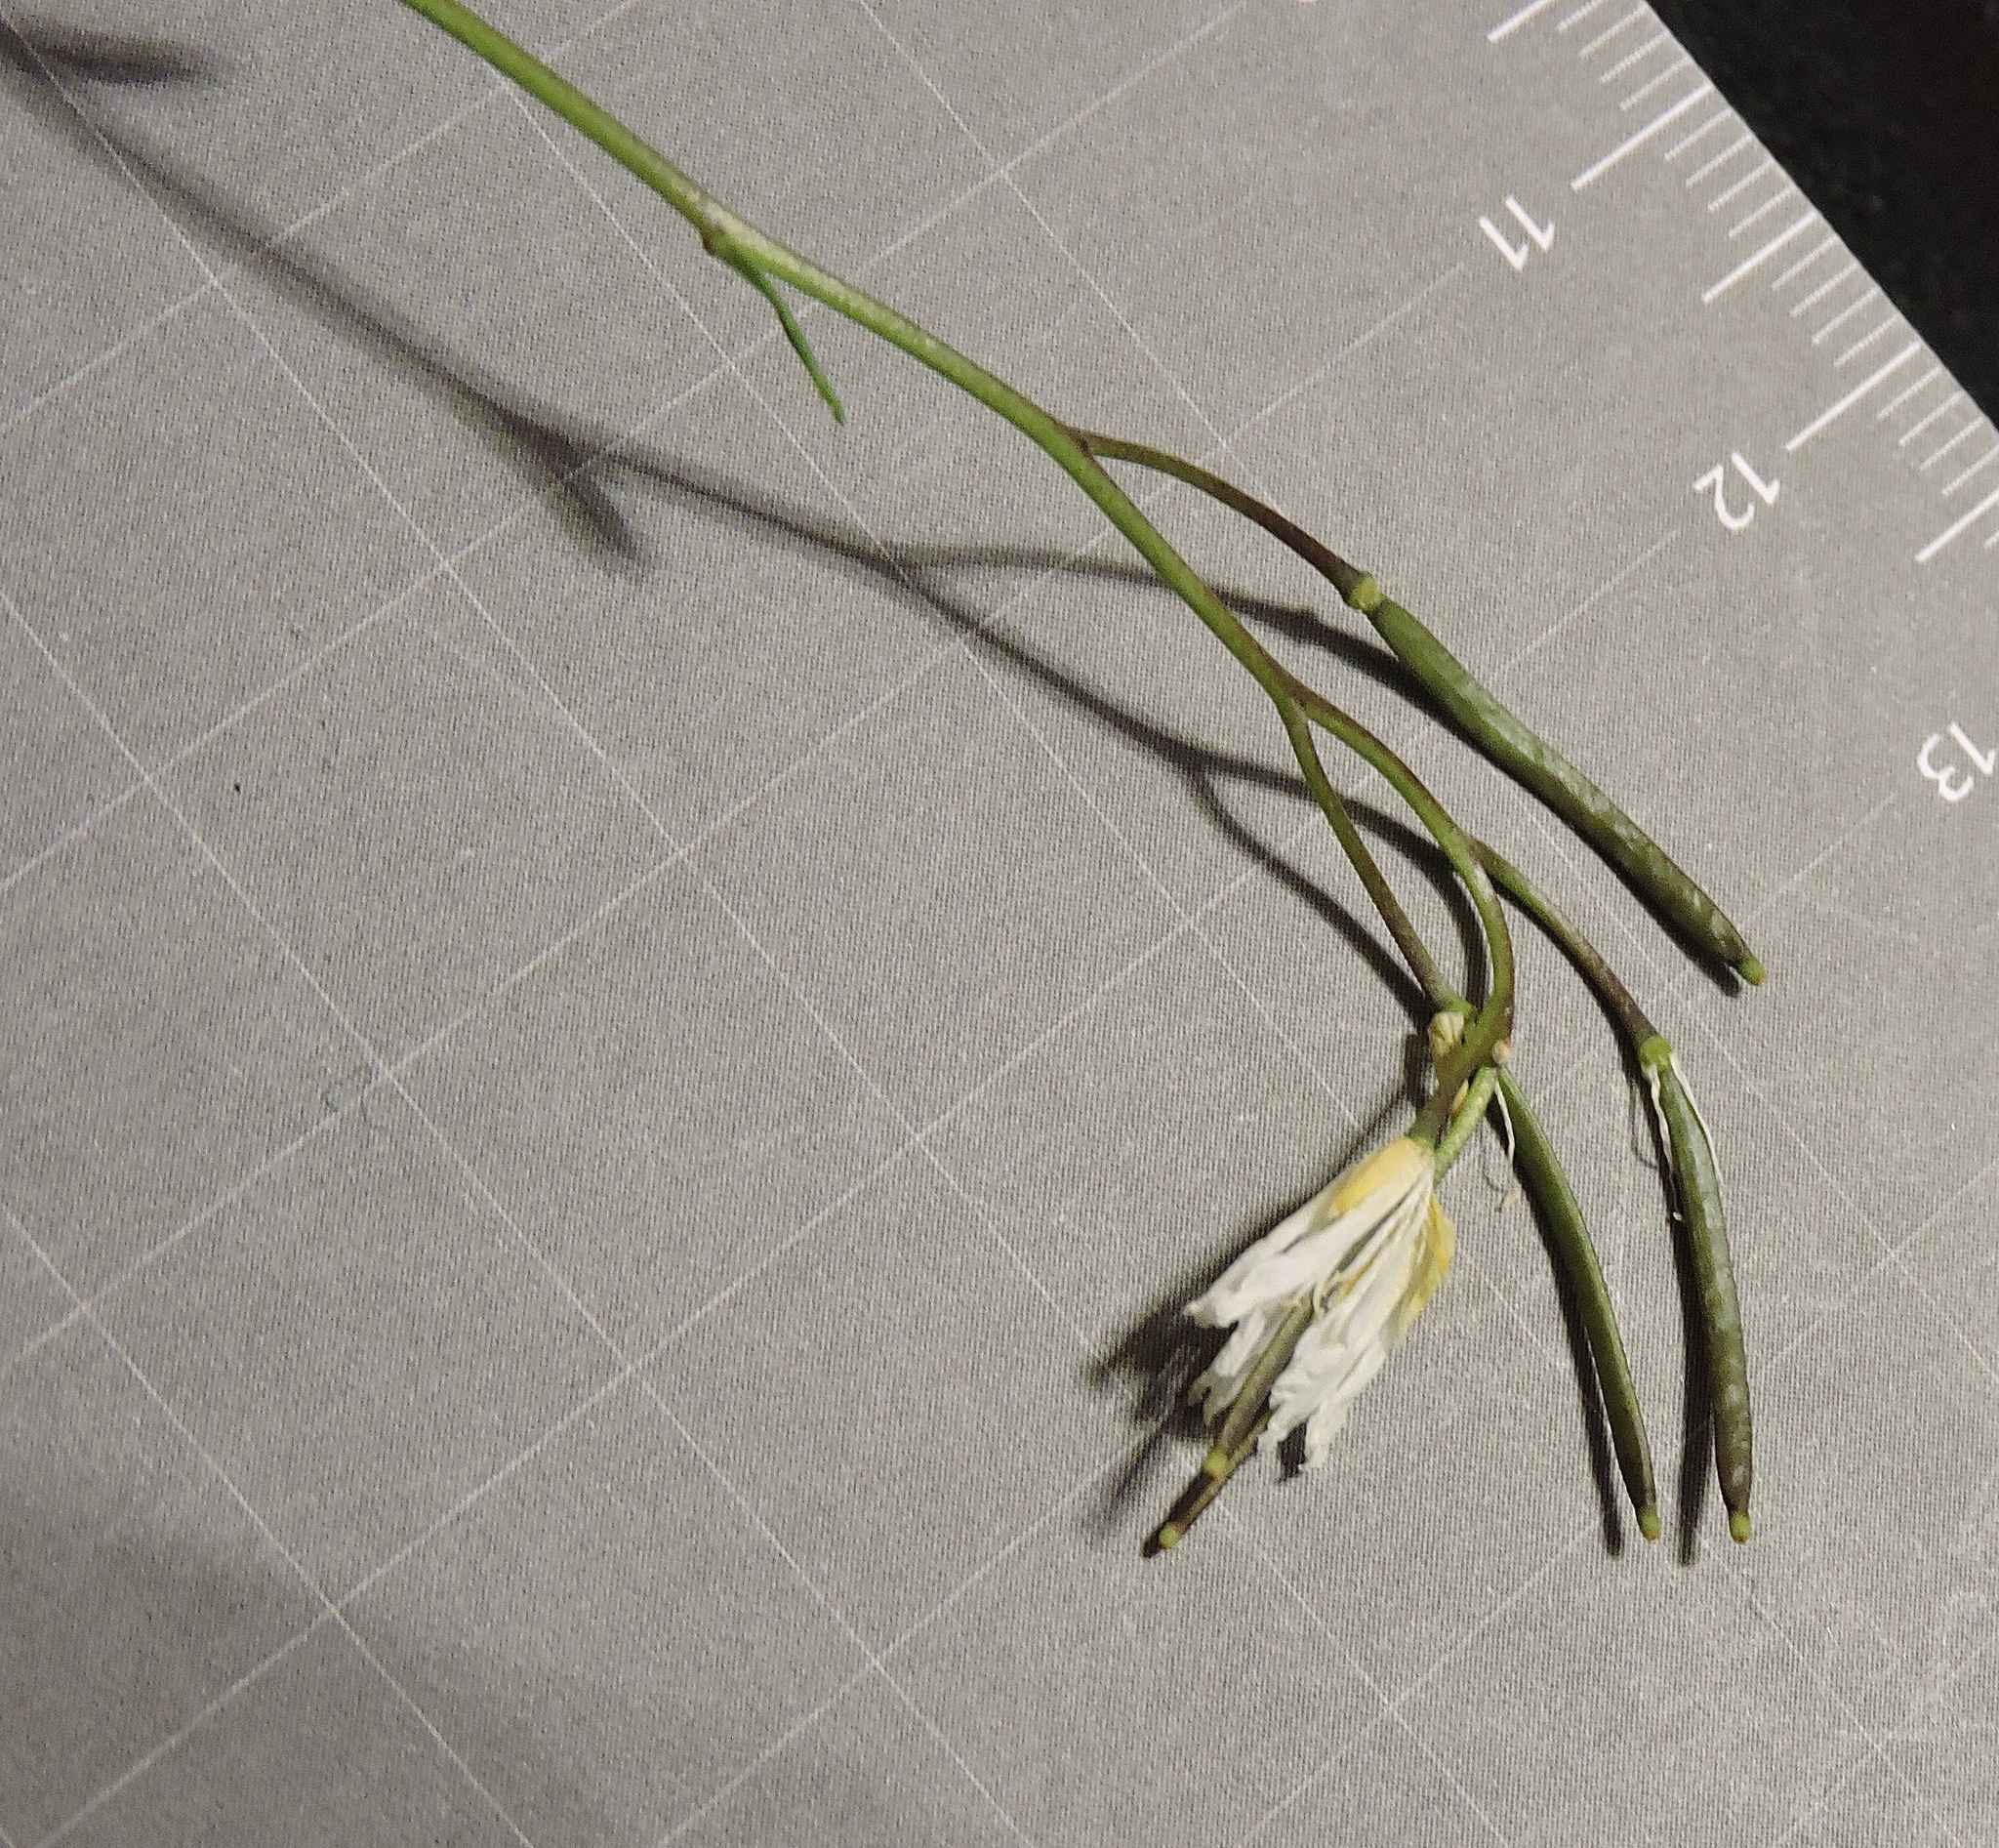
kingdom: Plantae
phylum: Tracheophyta
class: Magnoliopsida
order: Brassicales
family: Brassicaceae
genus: Arabis
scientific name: Arabis stellulata
